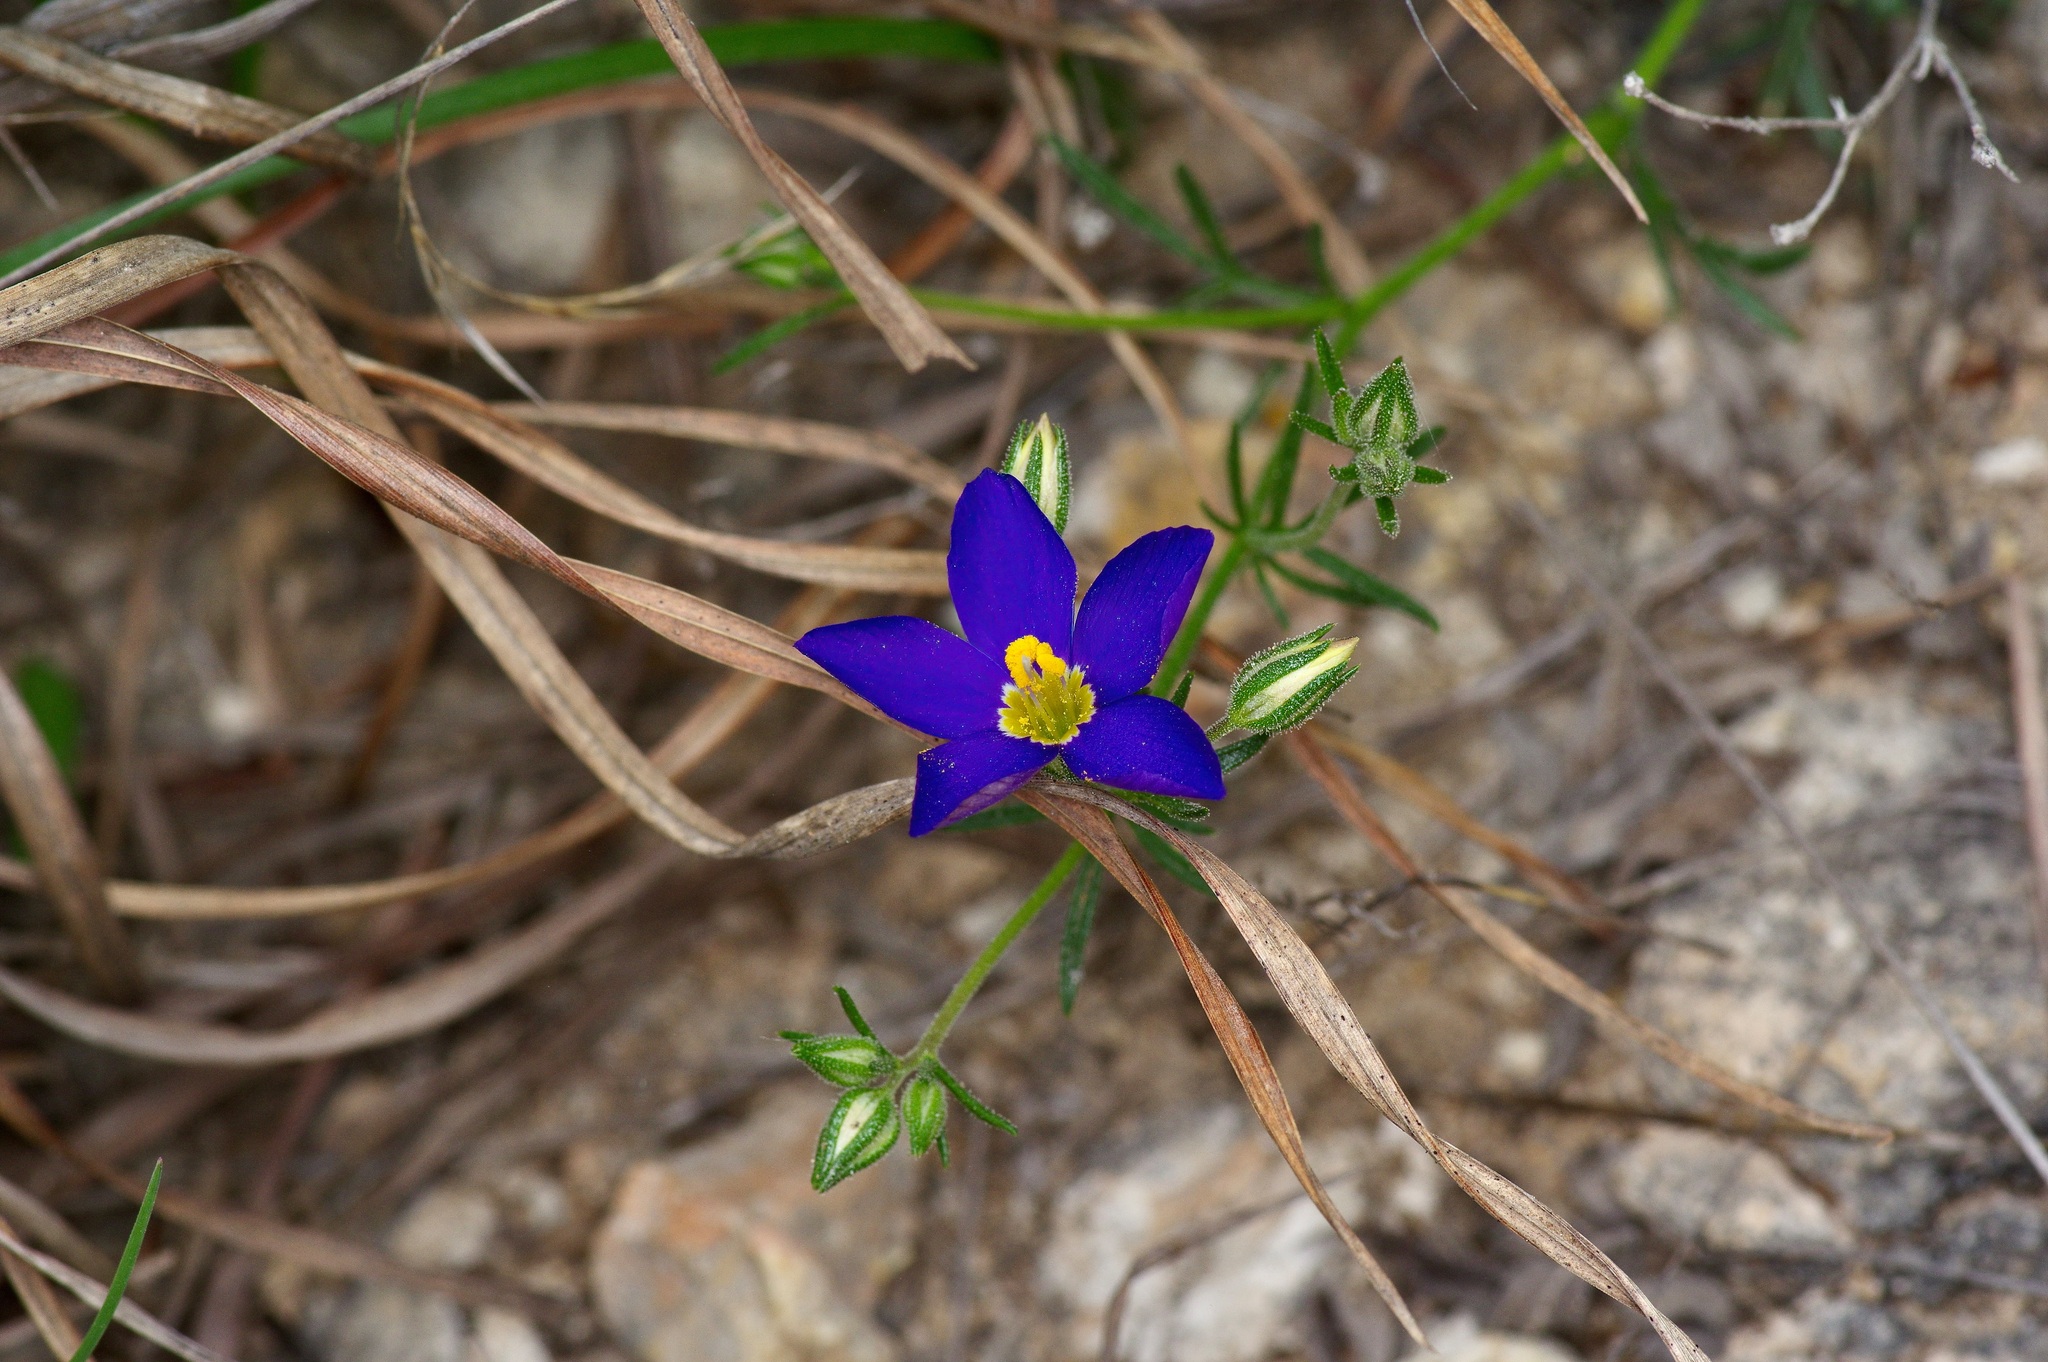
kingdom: Plantae
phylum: Tracheophyta
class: Magnoliopsida
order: Ericales
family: Polemoniaceae
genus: Giliastrum
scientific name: Giliastrum rigidulum
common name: Bluebowls
